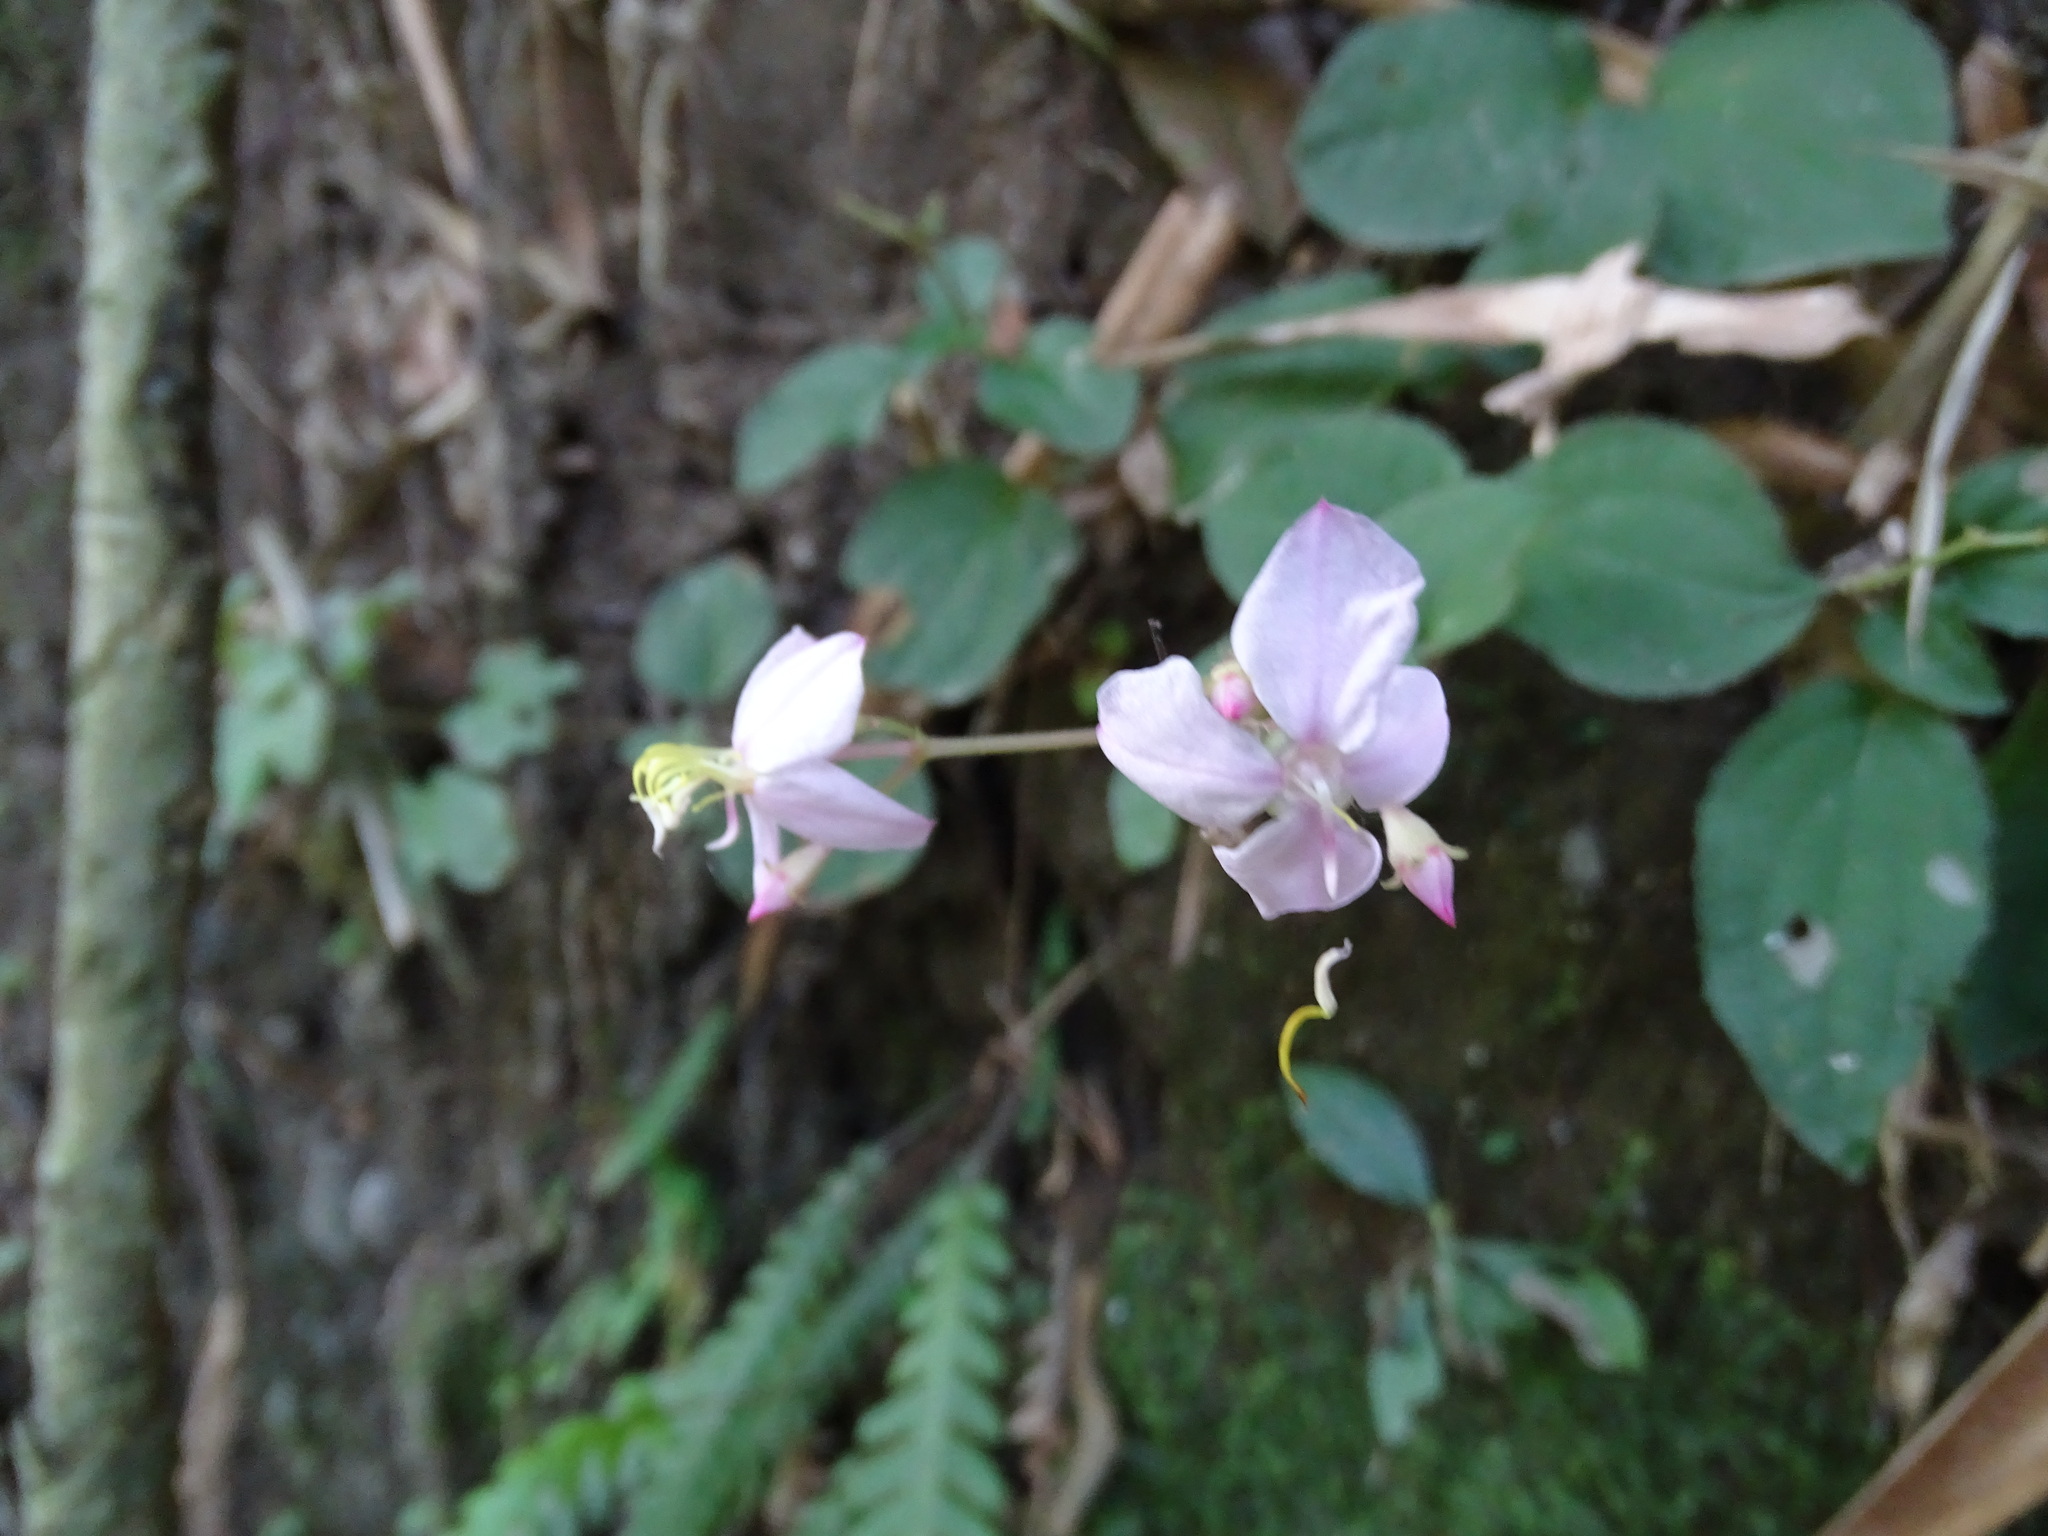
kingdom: Plantae
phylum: Tracheophyta
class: Magnoliopsida
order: Myrtales
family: Melastomataceae
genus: Bredia
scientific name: Bredia hirsuta
